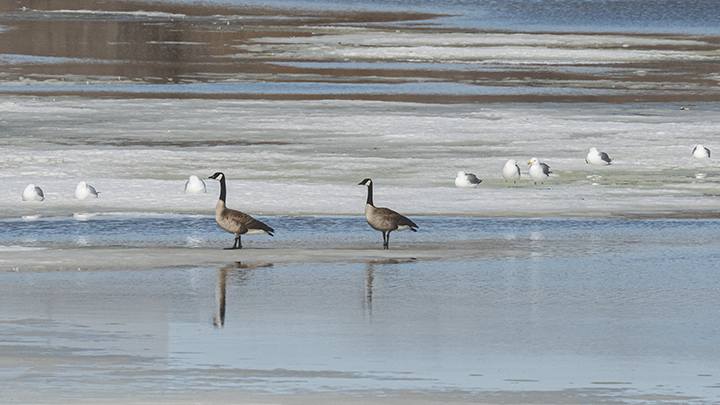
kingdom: Animalia
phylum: Chordata
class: Aves
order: Anseriformes
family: Anatidae
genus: Branta
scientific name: Branta canadensis
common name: Canada goose
